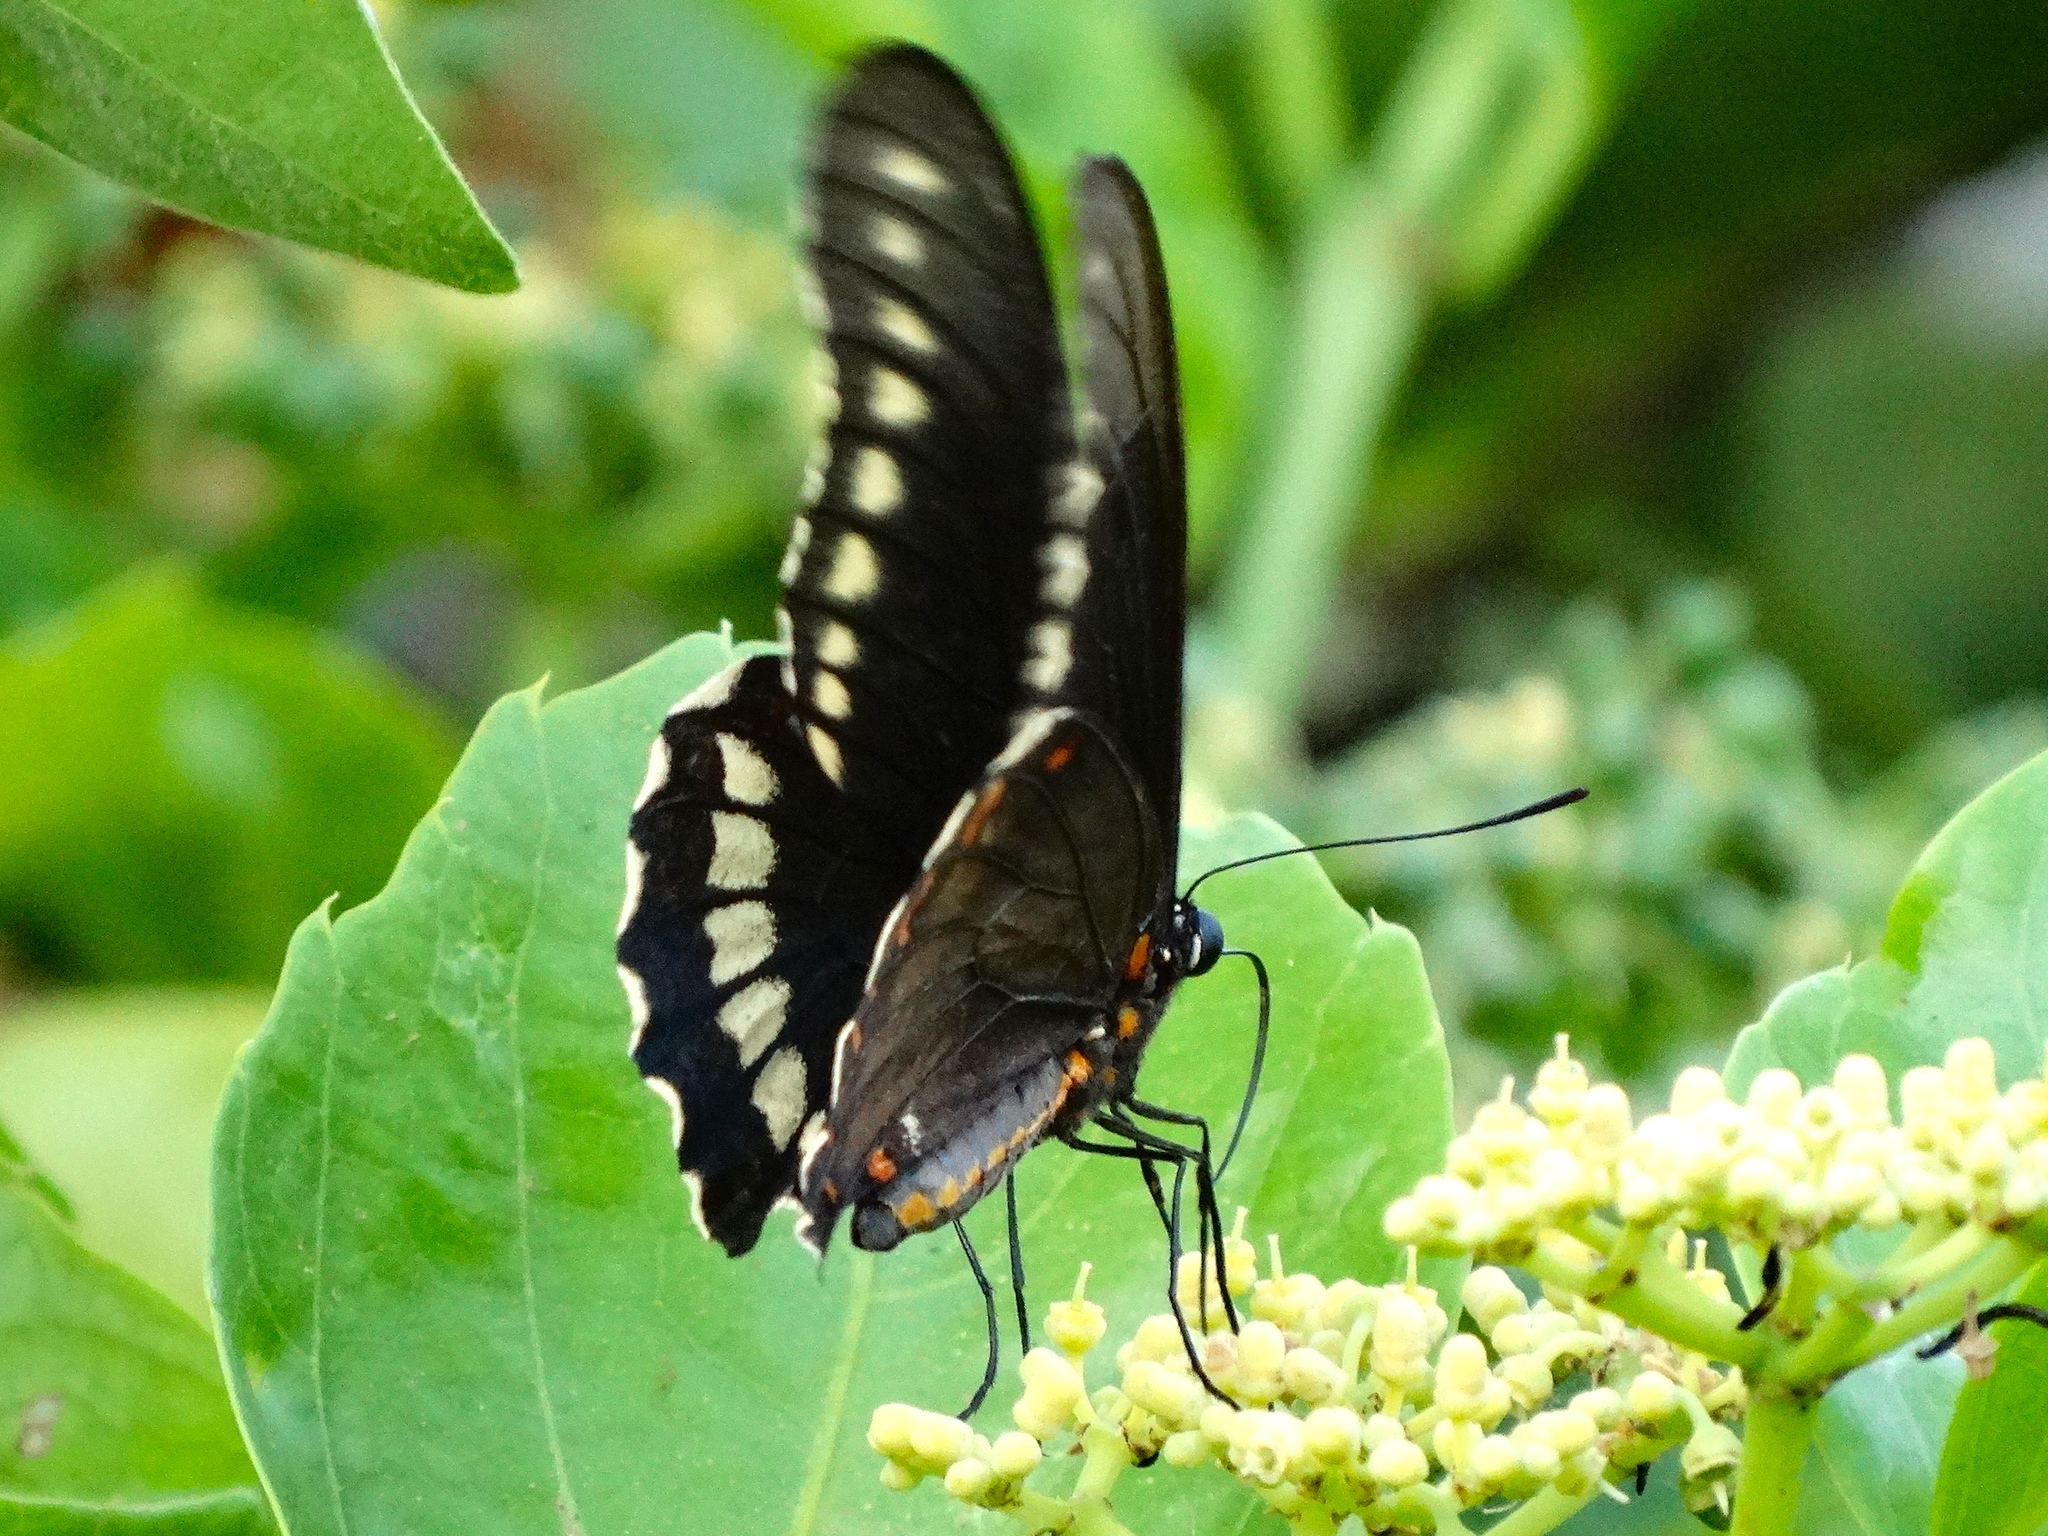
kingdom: Animalia
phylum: Arthropoda
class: Insecta
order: Lepidoptera
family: Papilionidae
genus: Battus
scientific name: Battus polydamas
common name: Polydamas swallowtail
